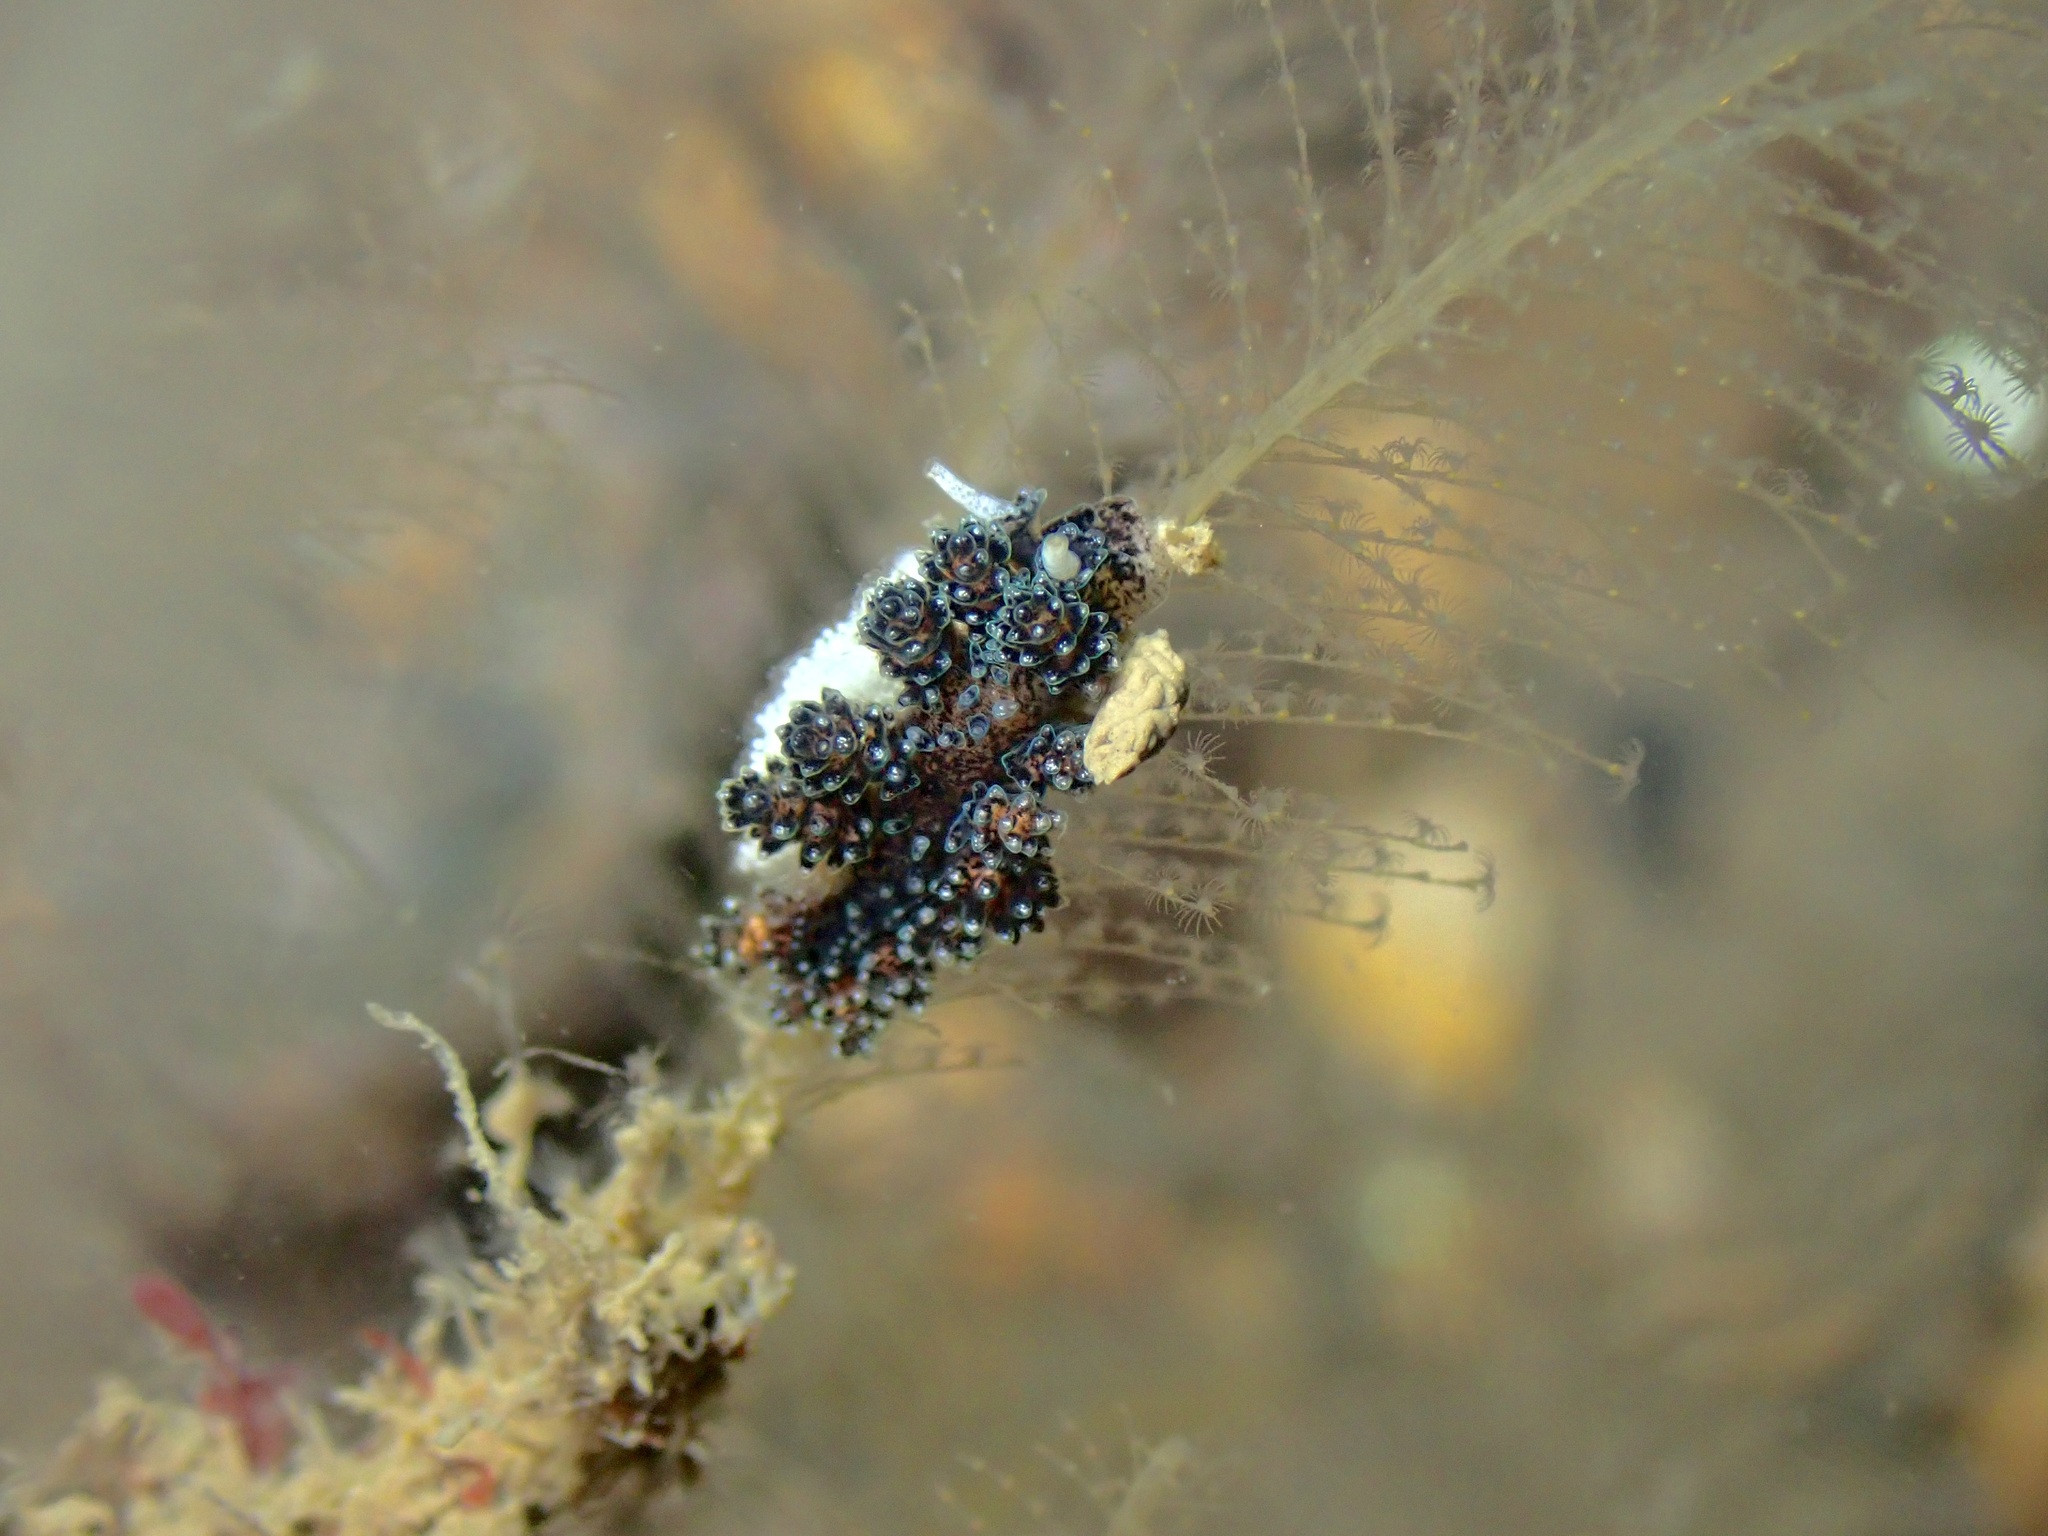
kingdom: Animalia
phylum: Mollusca
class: Gastropoda
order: Nudibranchia
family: Dotidae
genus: Doto
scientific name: Doto cuspidata
